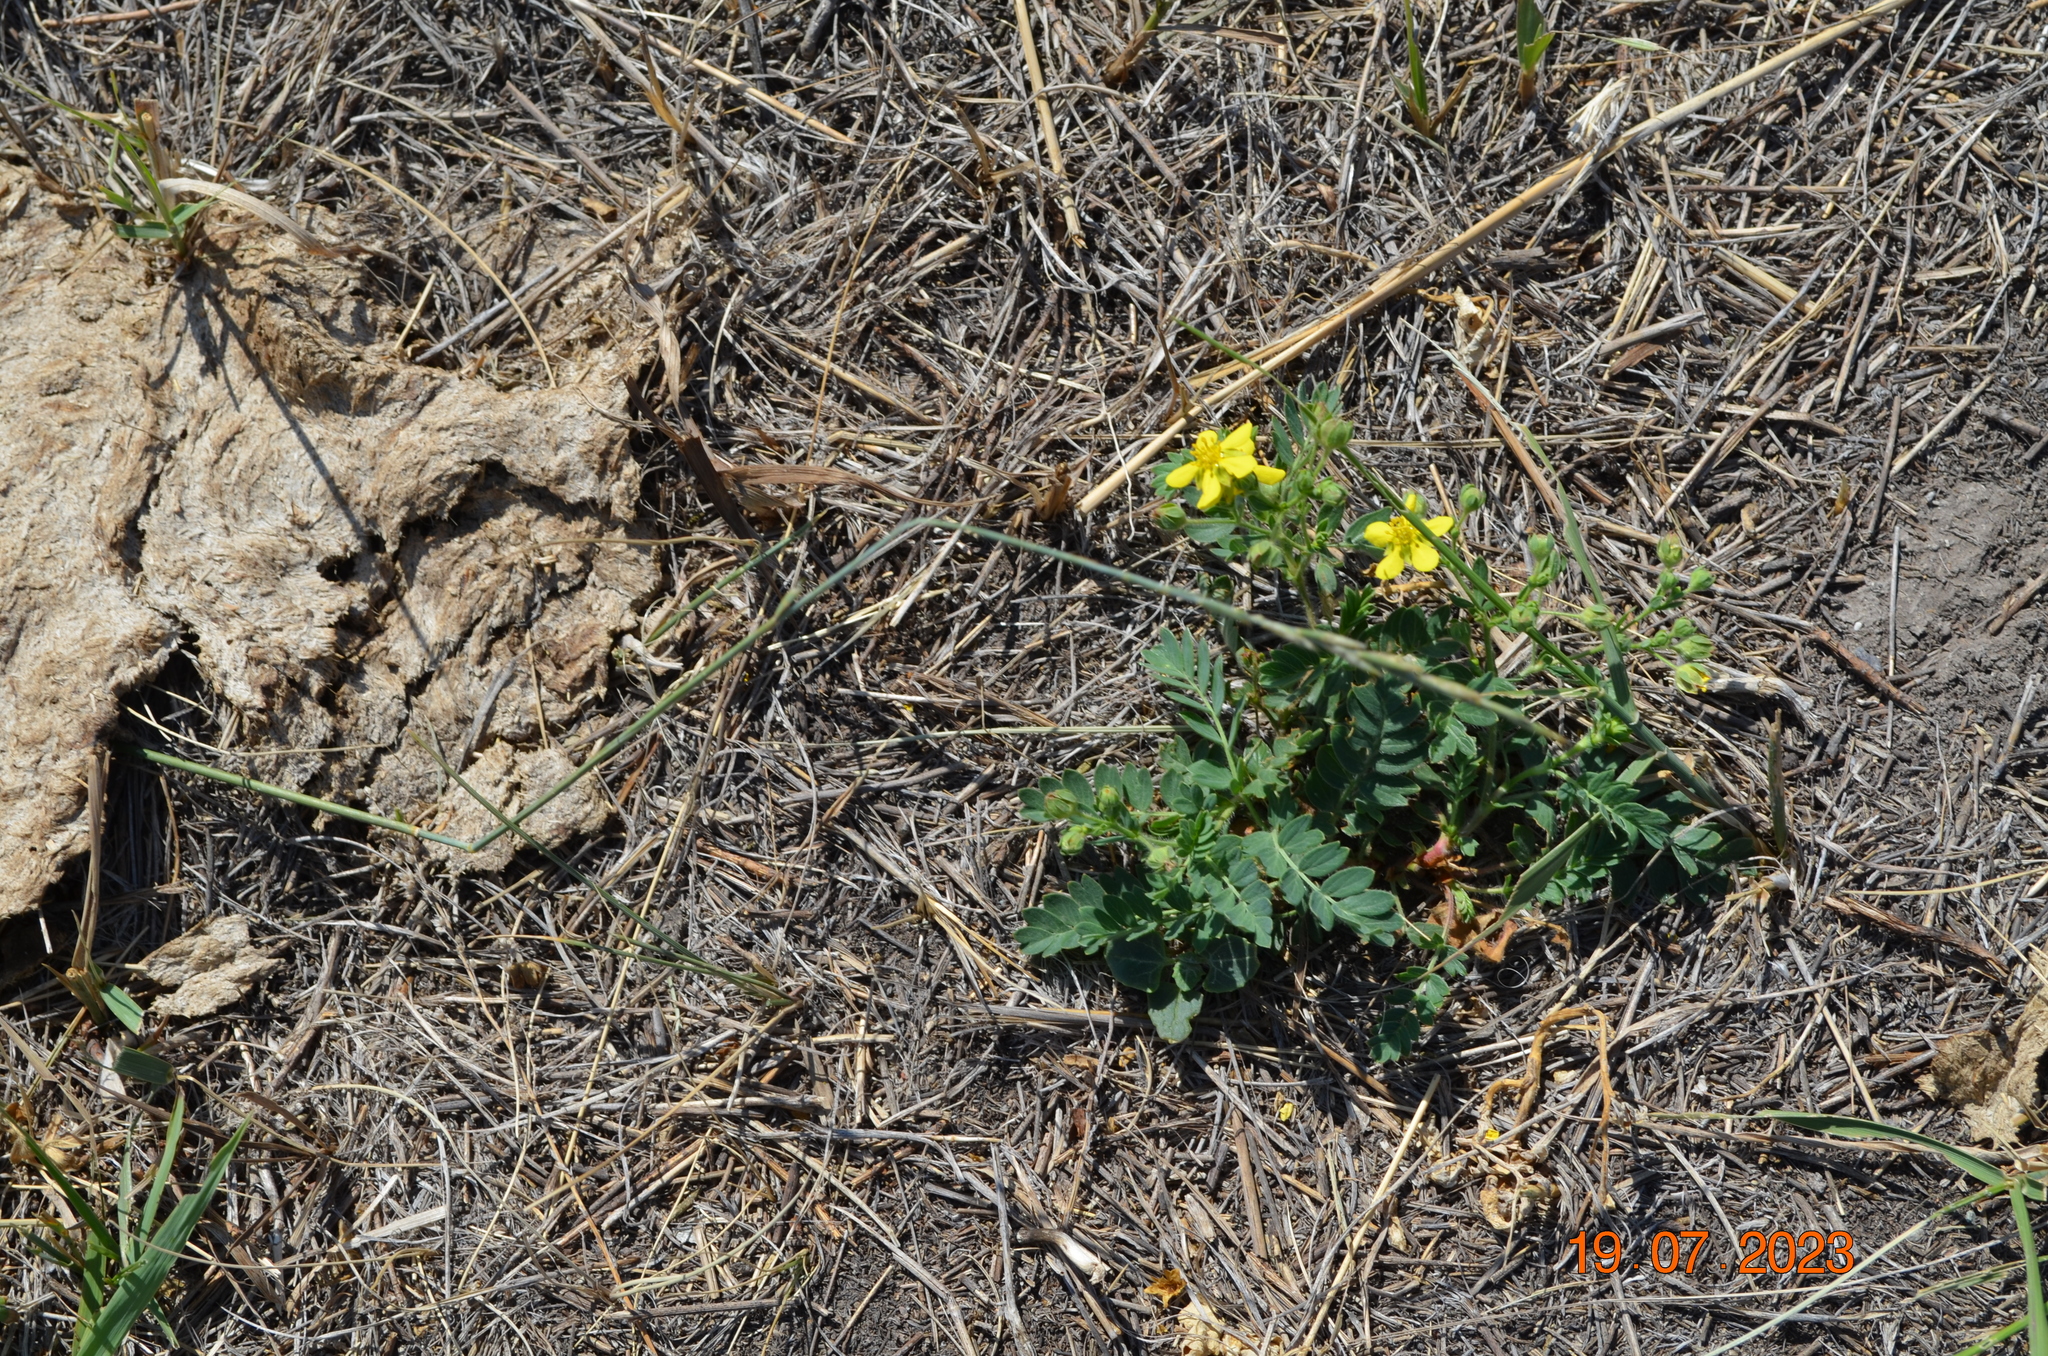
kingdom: Plantae
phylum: Tracheophyta
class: Magnoliopsida
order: Rosales
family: Rosaceae
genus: Sibbaldianthe
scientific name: Sibbaldianthe bifurca
